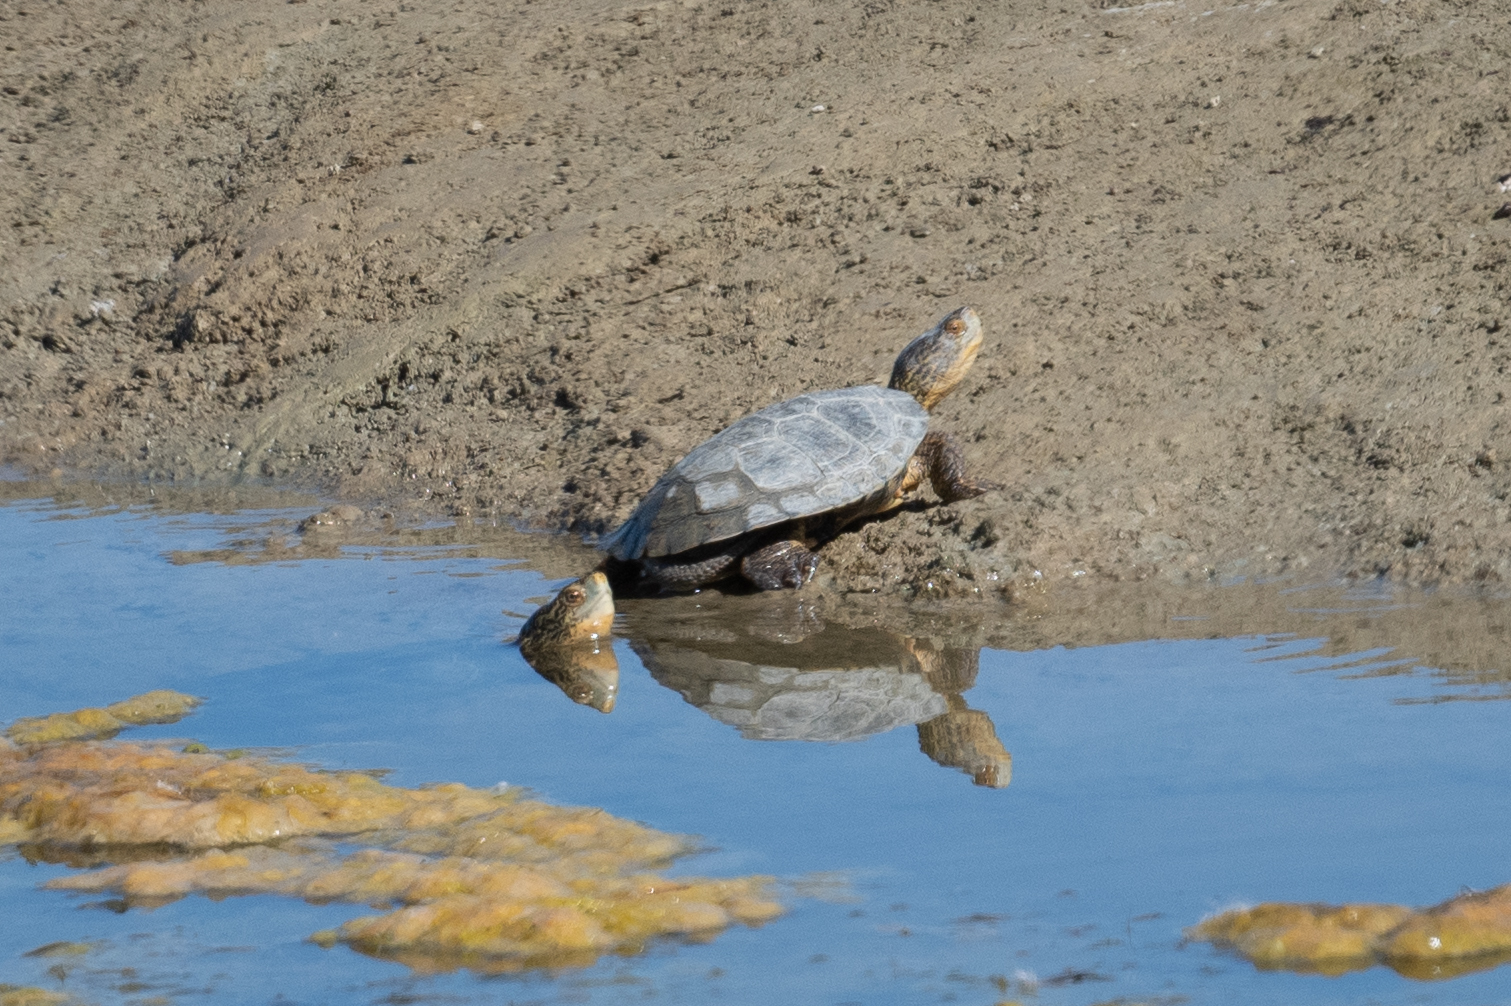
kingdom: Animalia
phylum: Chordata
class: Testudines
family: Emydidae
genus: Actinemys
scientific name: Actinemys marmorata
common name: Western pond turtle
